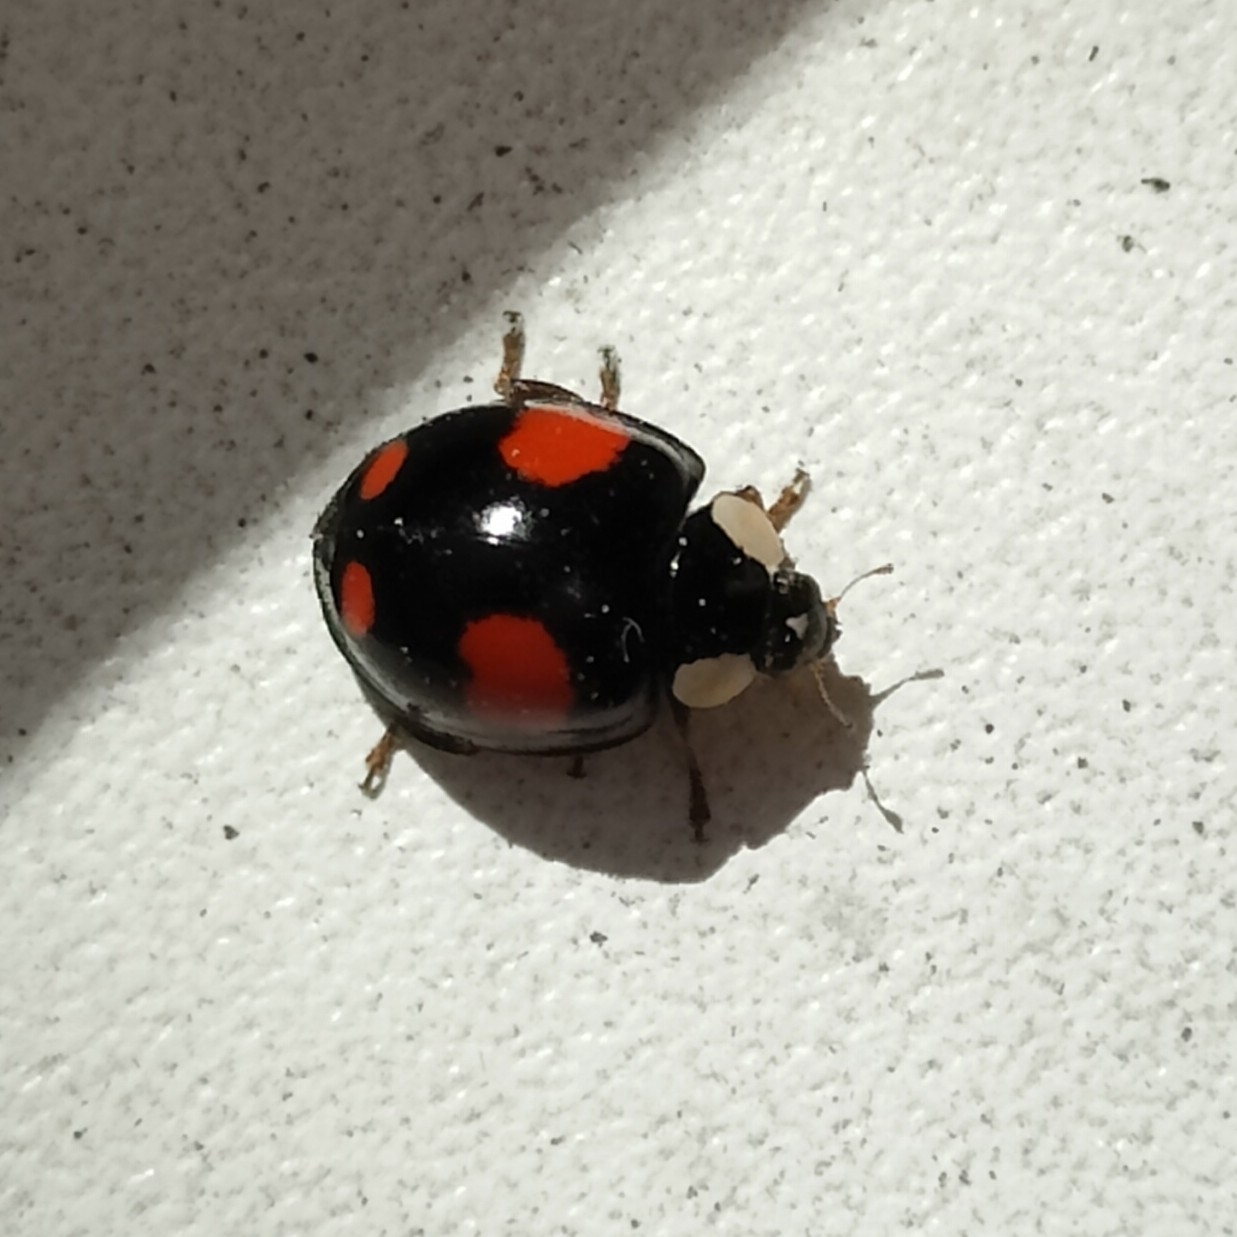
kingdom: Animalia
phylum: Arthropoda
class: Insecta
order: Coleoptera
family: Coccinellidae
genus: Harmonia
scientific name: Harmonia axyridis
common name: Harlequin ladybird
